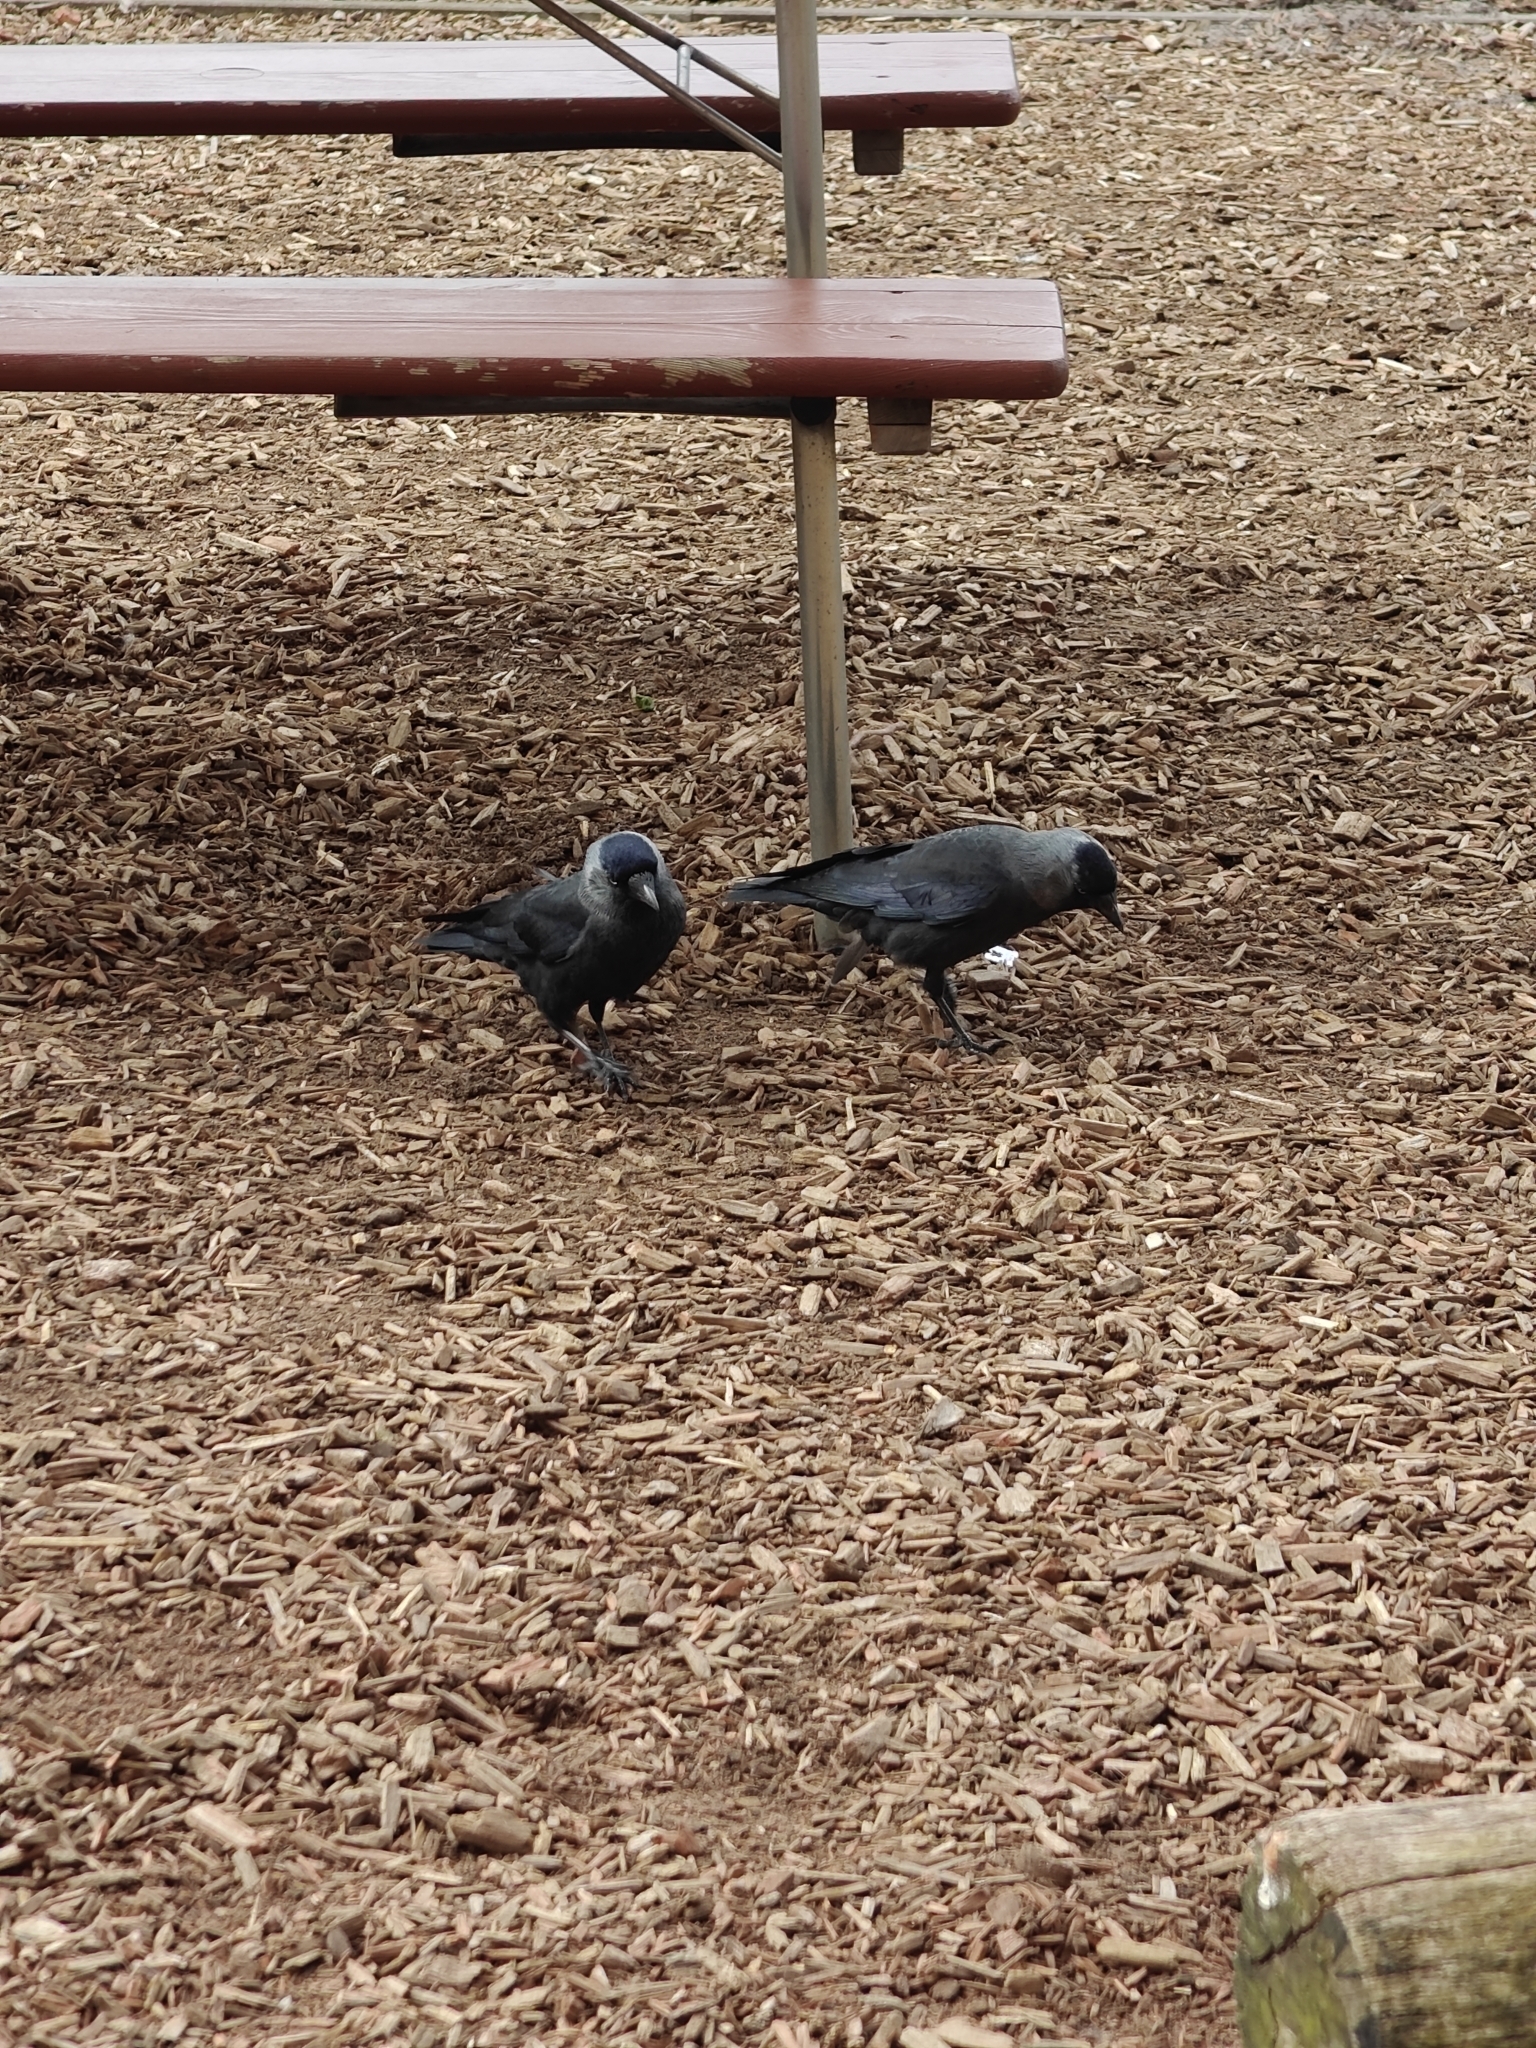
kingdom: Animalia
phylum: Chordata
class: Aves
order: Passeriformes
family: Corvidae
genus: Coloeus
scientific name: Coloeus monedula
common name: Western jackdaw
